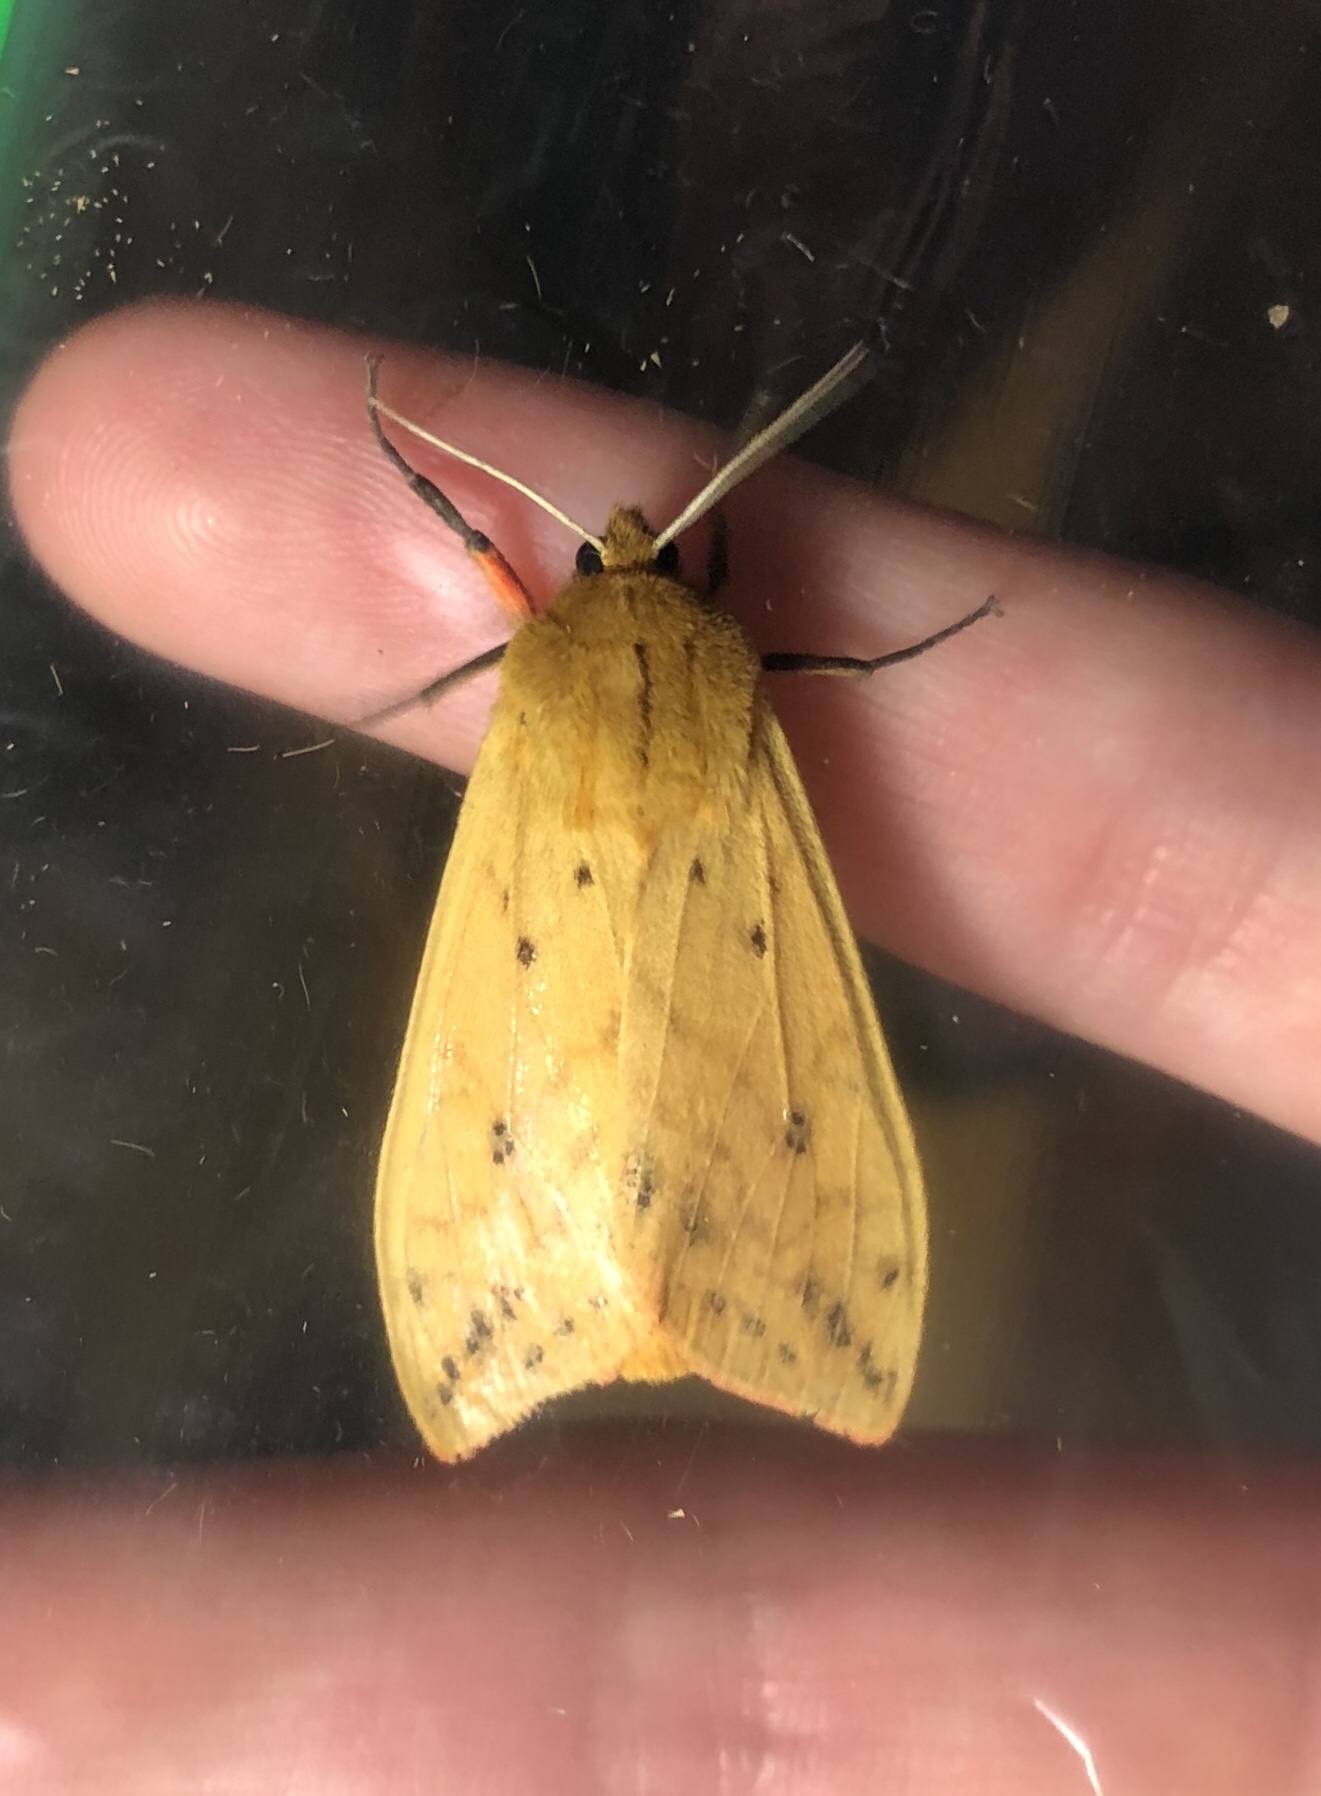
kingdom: Animalia
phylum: Arthropoda
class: Insecta
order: Lepidoptera
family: Erebidae
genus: Pyrrharctia
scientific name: Pyrrharctia isabella
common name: Isabella tiger moth
